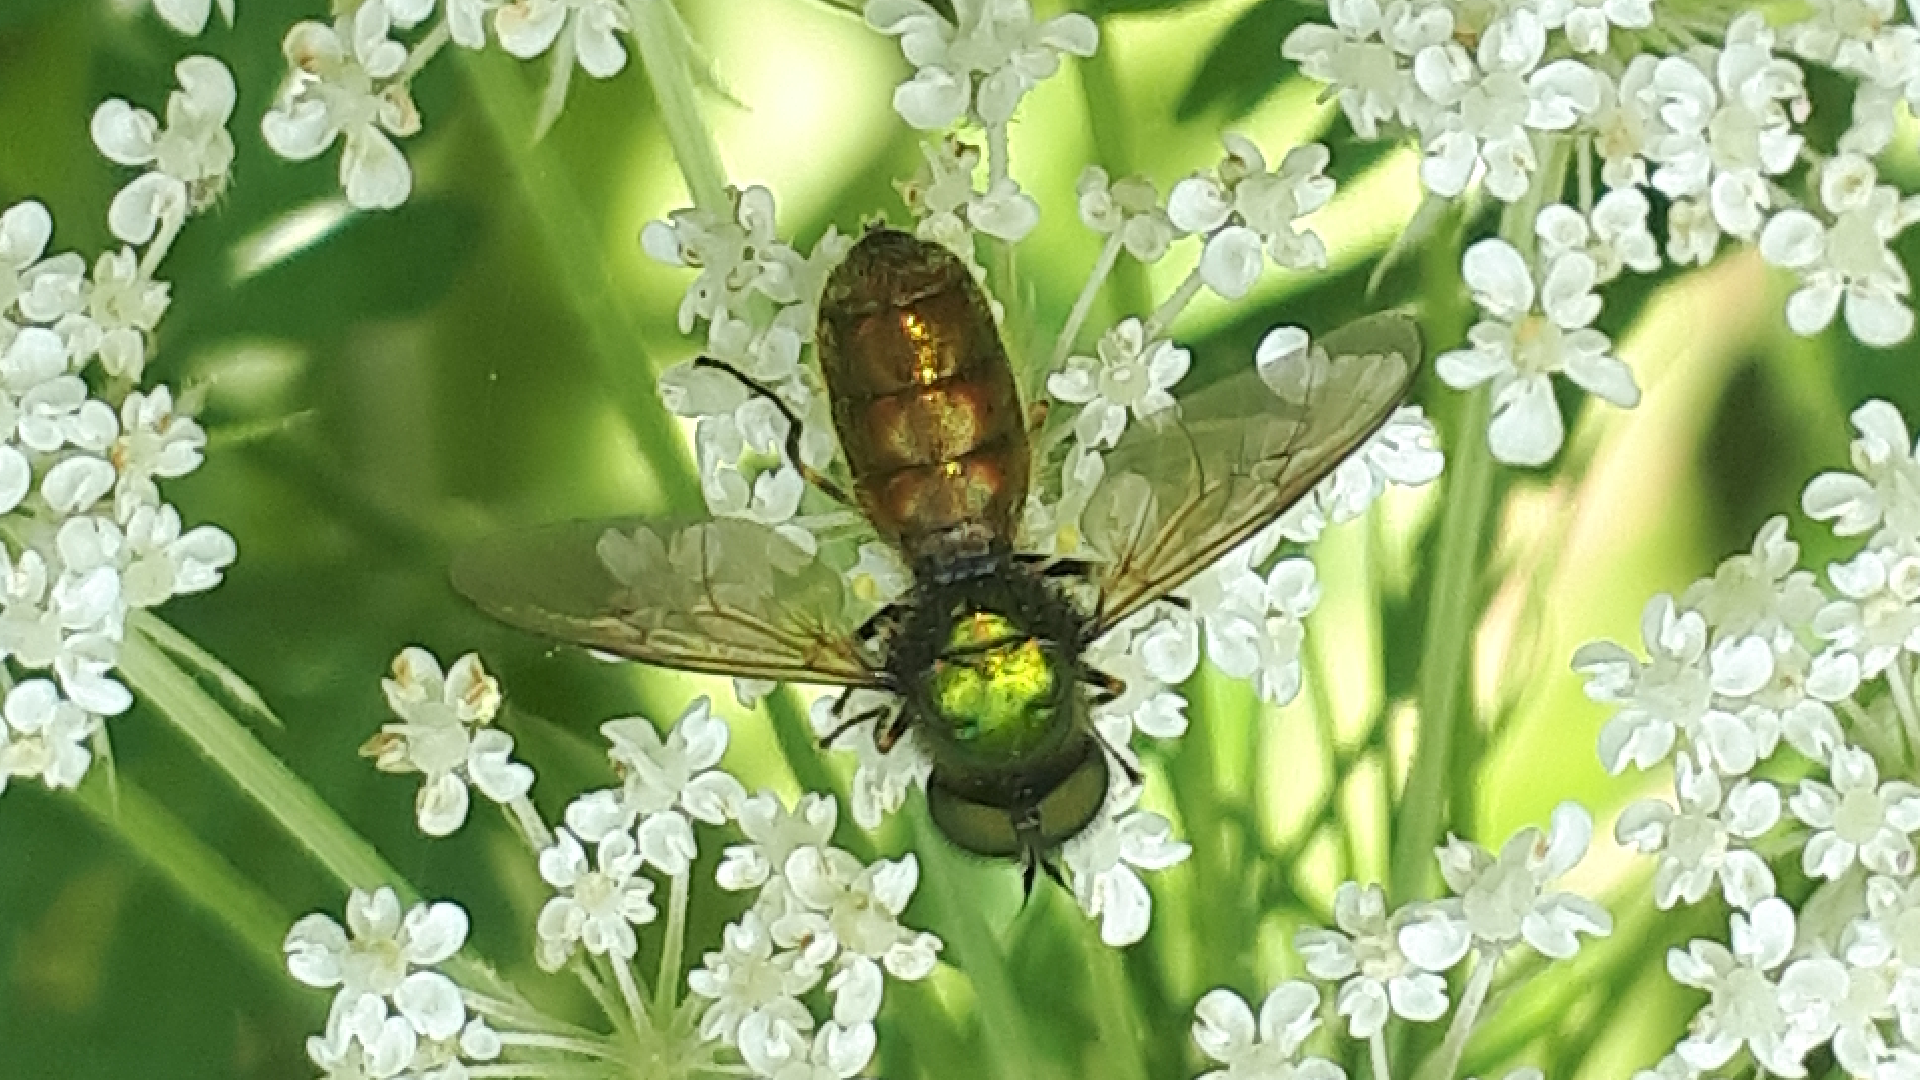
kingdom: Animalia
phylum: Arthropoda
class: Insecta
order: Diptera
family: Stratiomyidae
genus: Chloromyia
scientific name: Chloromyia formosa
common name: Soldier fly
